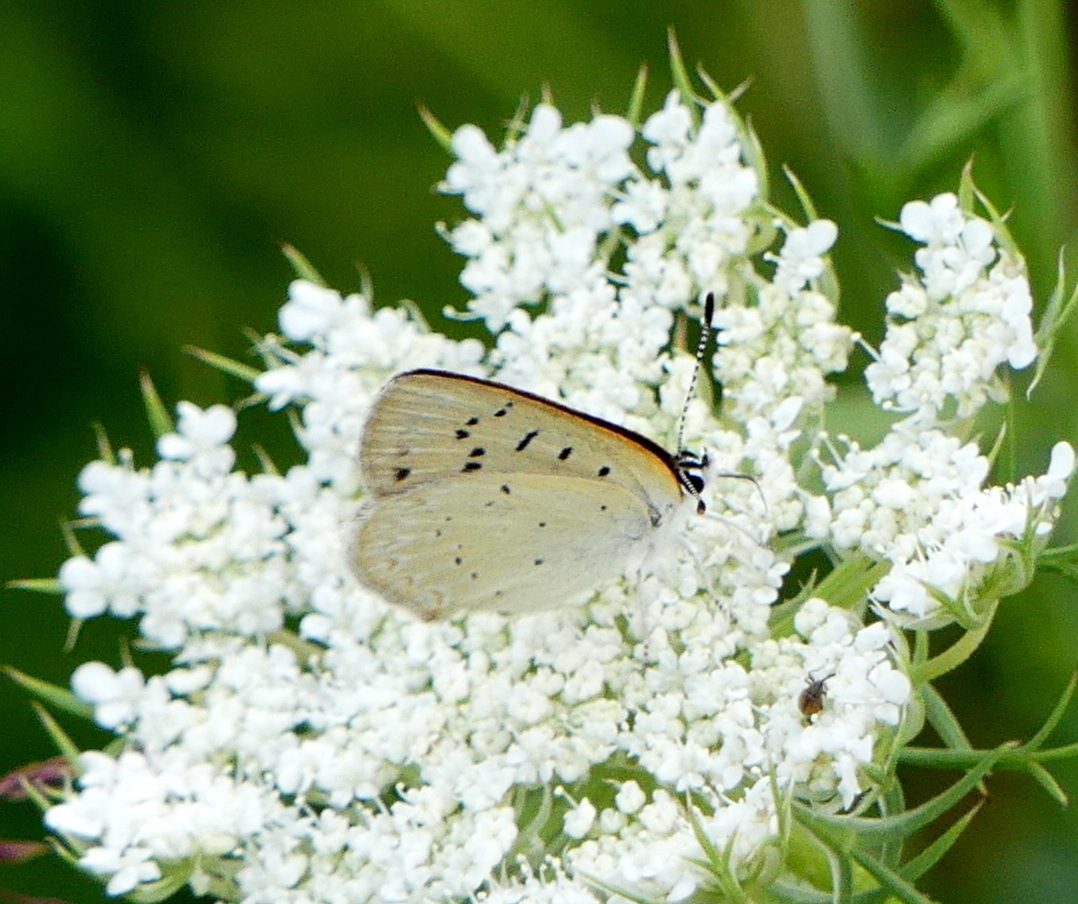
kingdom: Animalia
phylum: Arthropoda
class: Insecta
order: Lepidoptera
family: Lycaenidae
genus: Tharsalea
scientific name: Tharsalea epixanthe
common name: Bog copper
